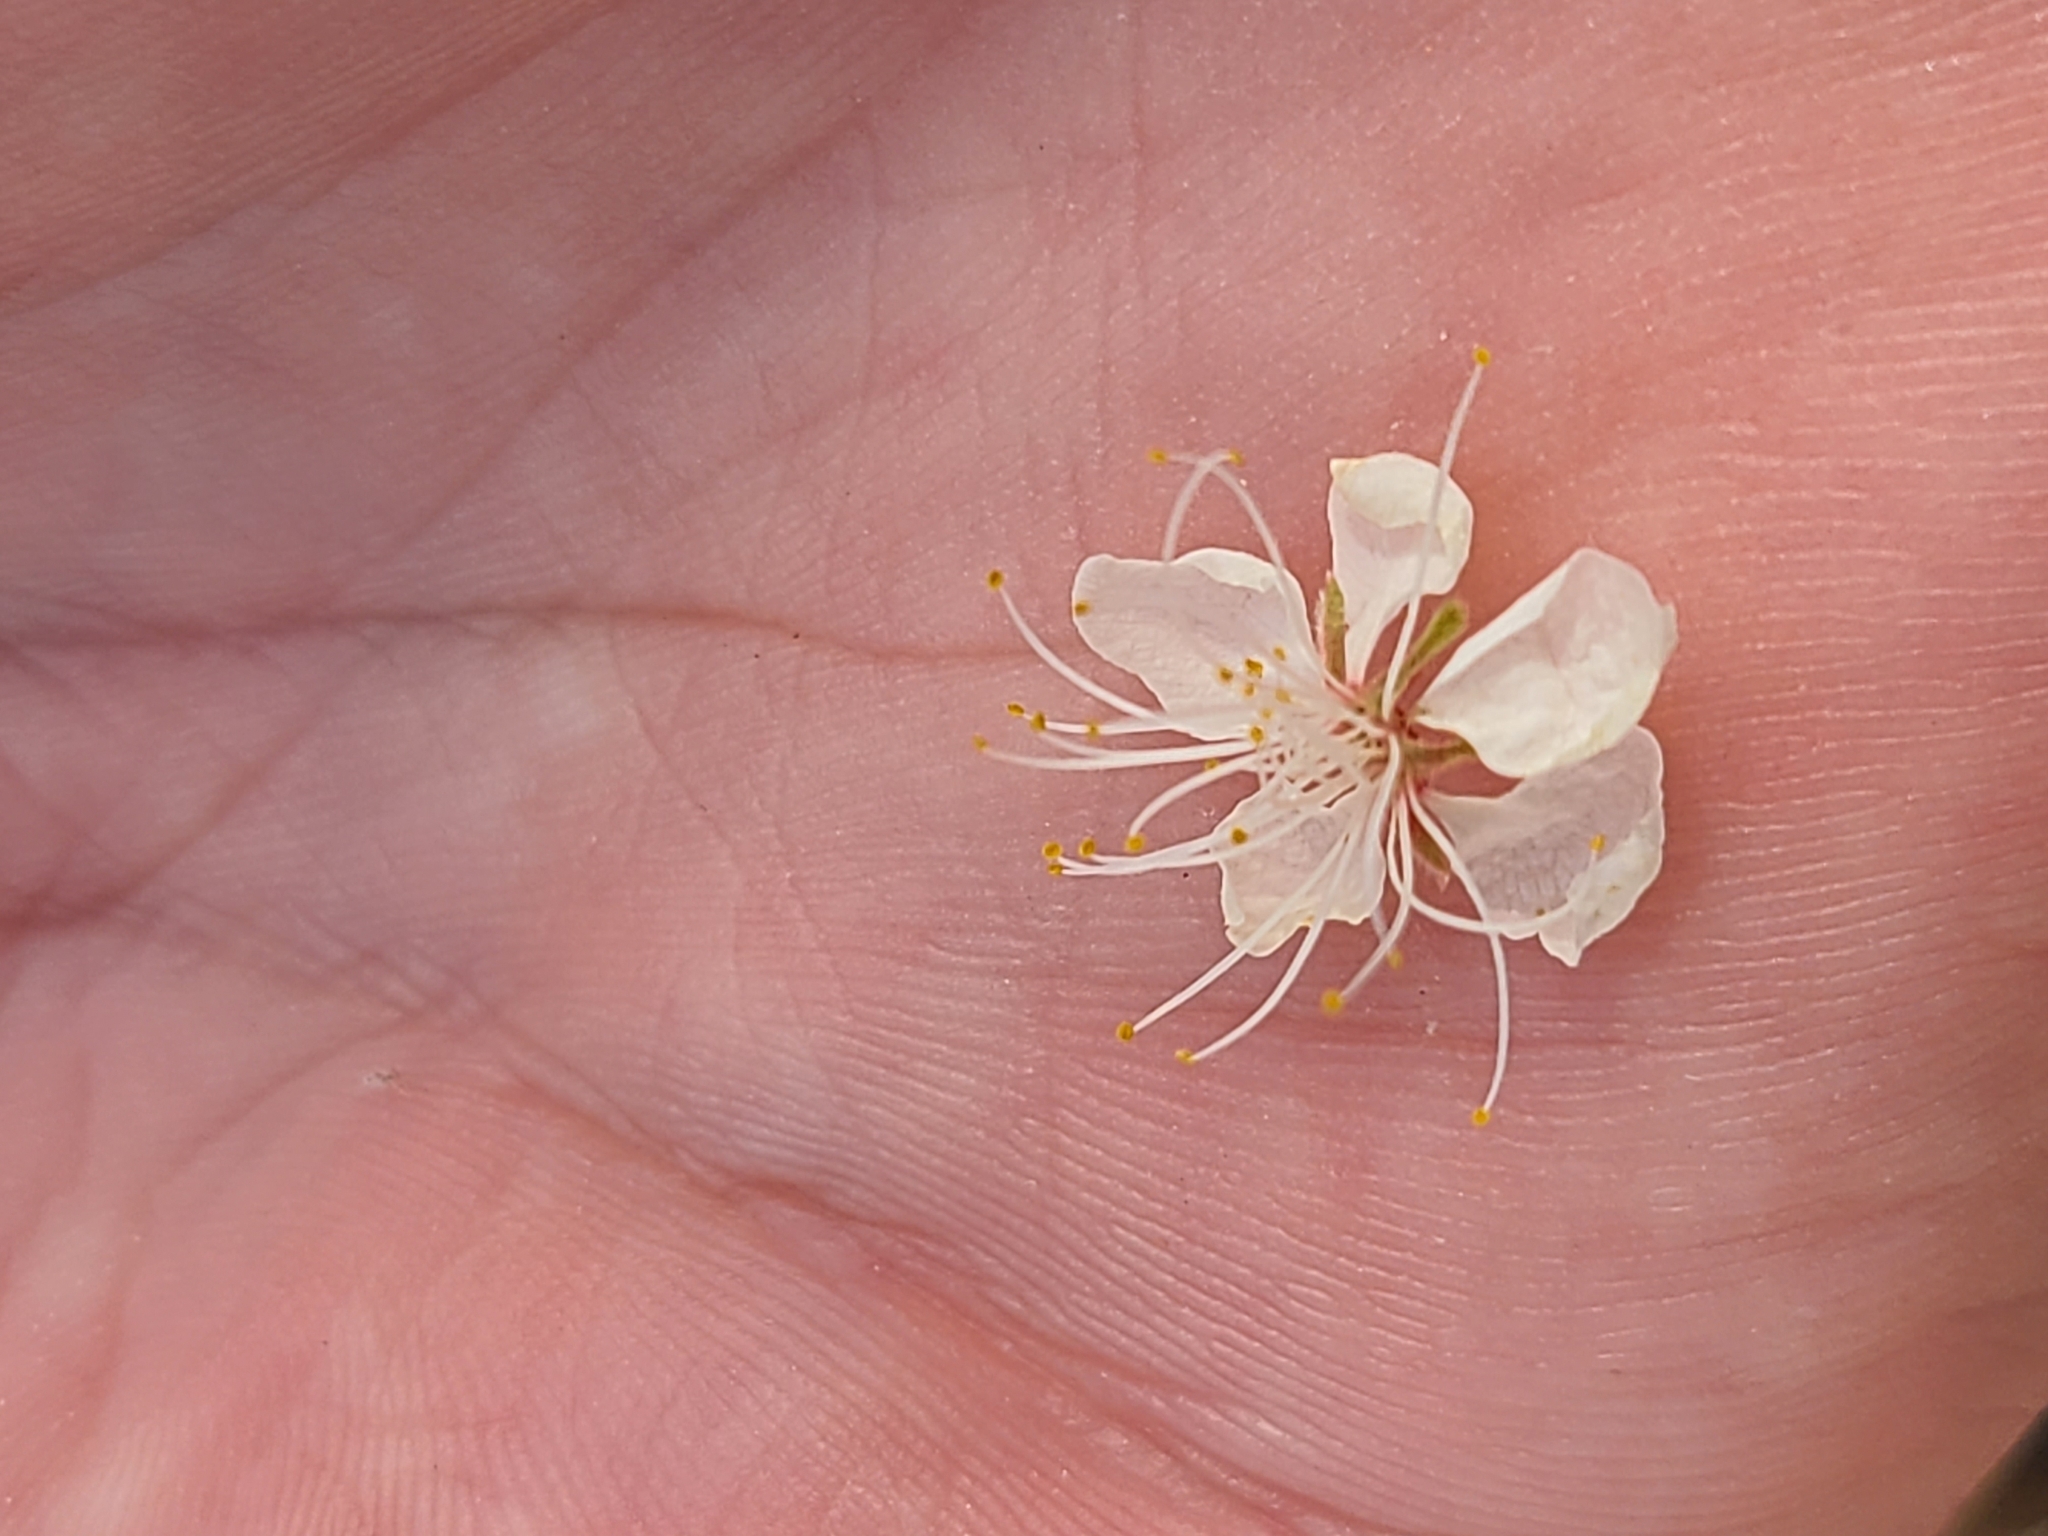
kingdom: Plantae
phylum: Tracheophyta
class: Magnoliopsida
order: Rosales
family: Rosaceae
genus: Prunus
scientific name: Prunus mexicana
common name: Mexican plum
